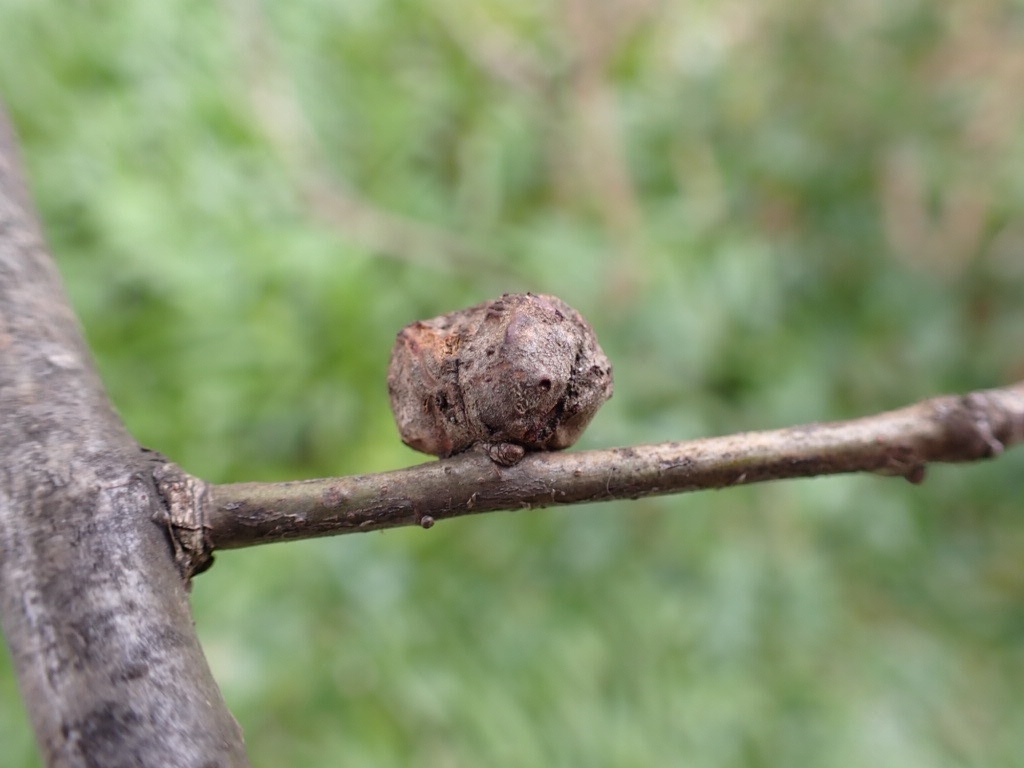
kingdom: Animalia
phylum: Arthropoda
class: Insecta
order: Hymenoptera
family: Cynipidae
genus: Andricus
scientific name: Andricus lignicolus
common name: Cola-nut gall
